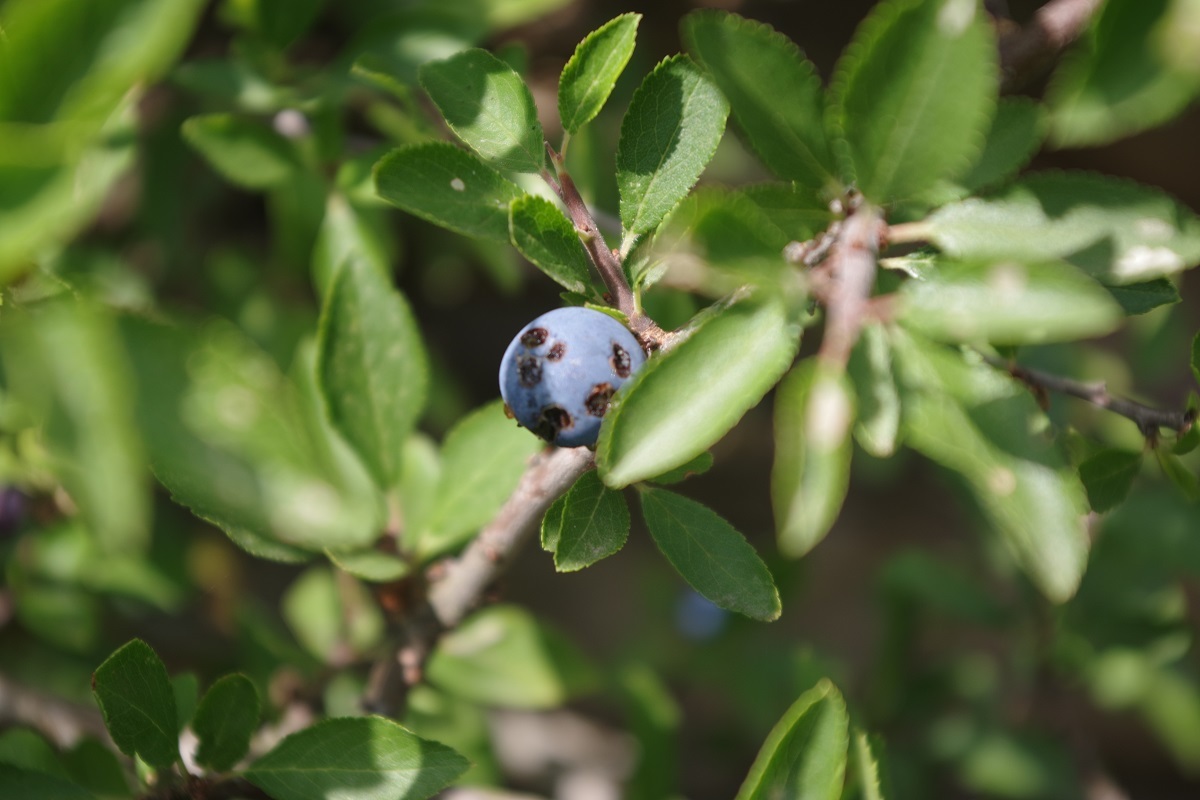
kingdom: Plantae
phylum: Tracheophyta
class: Magnoliopsida
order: Rosales
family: Rosaceae
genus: Prunus
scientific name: Prunus spinosa
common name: Blackthorn
